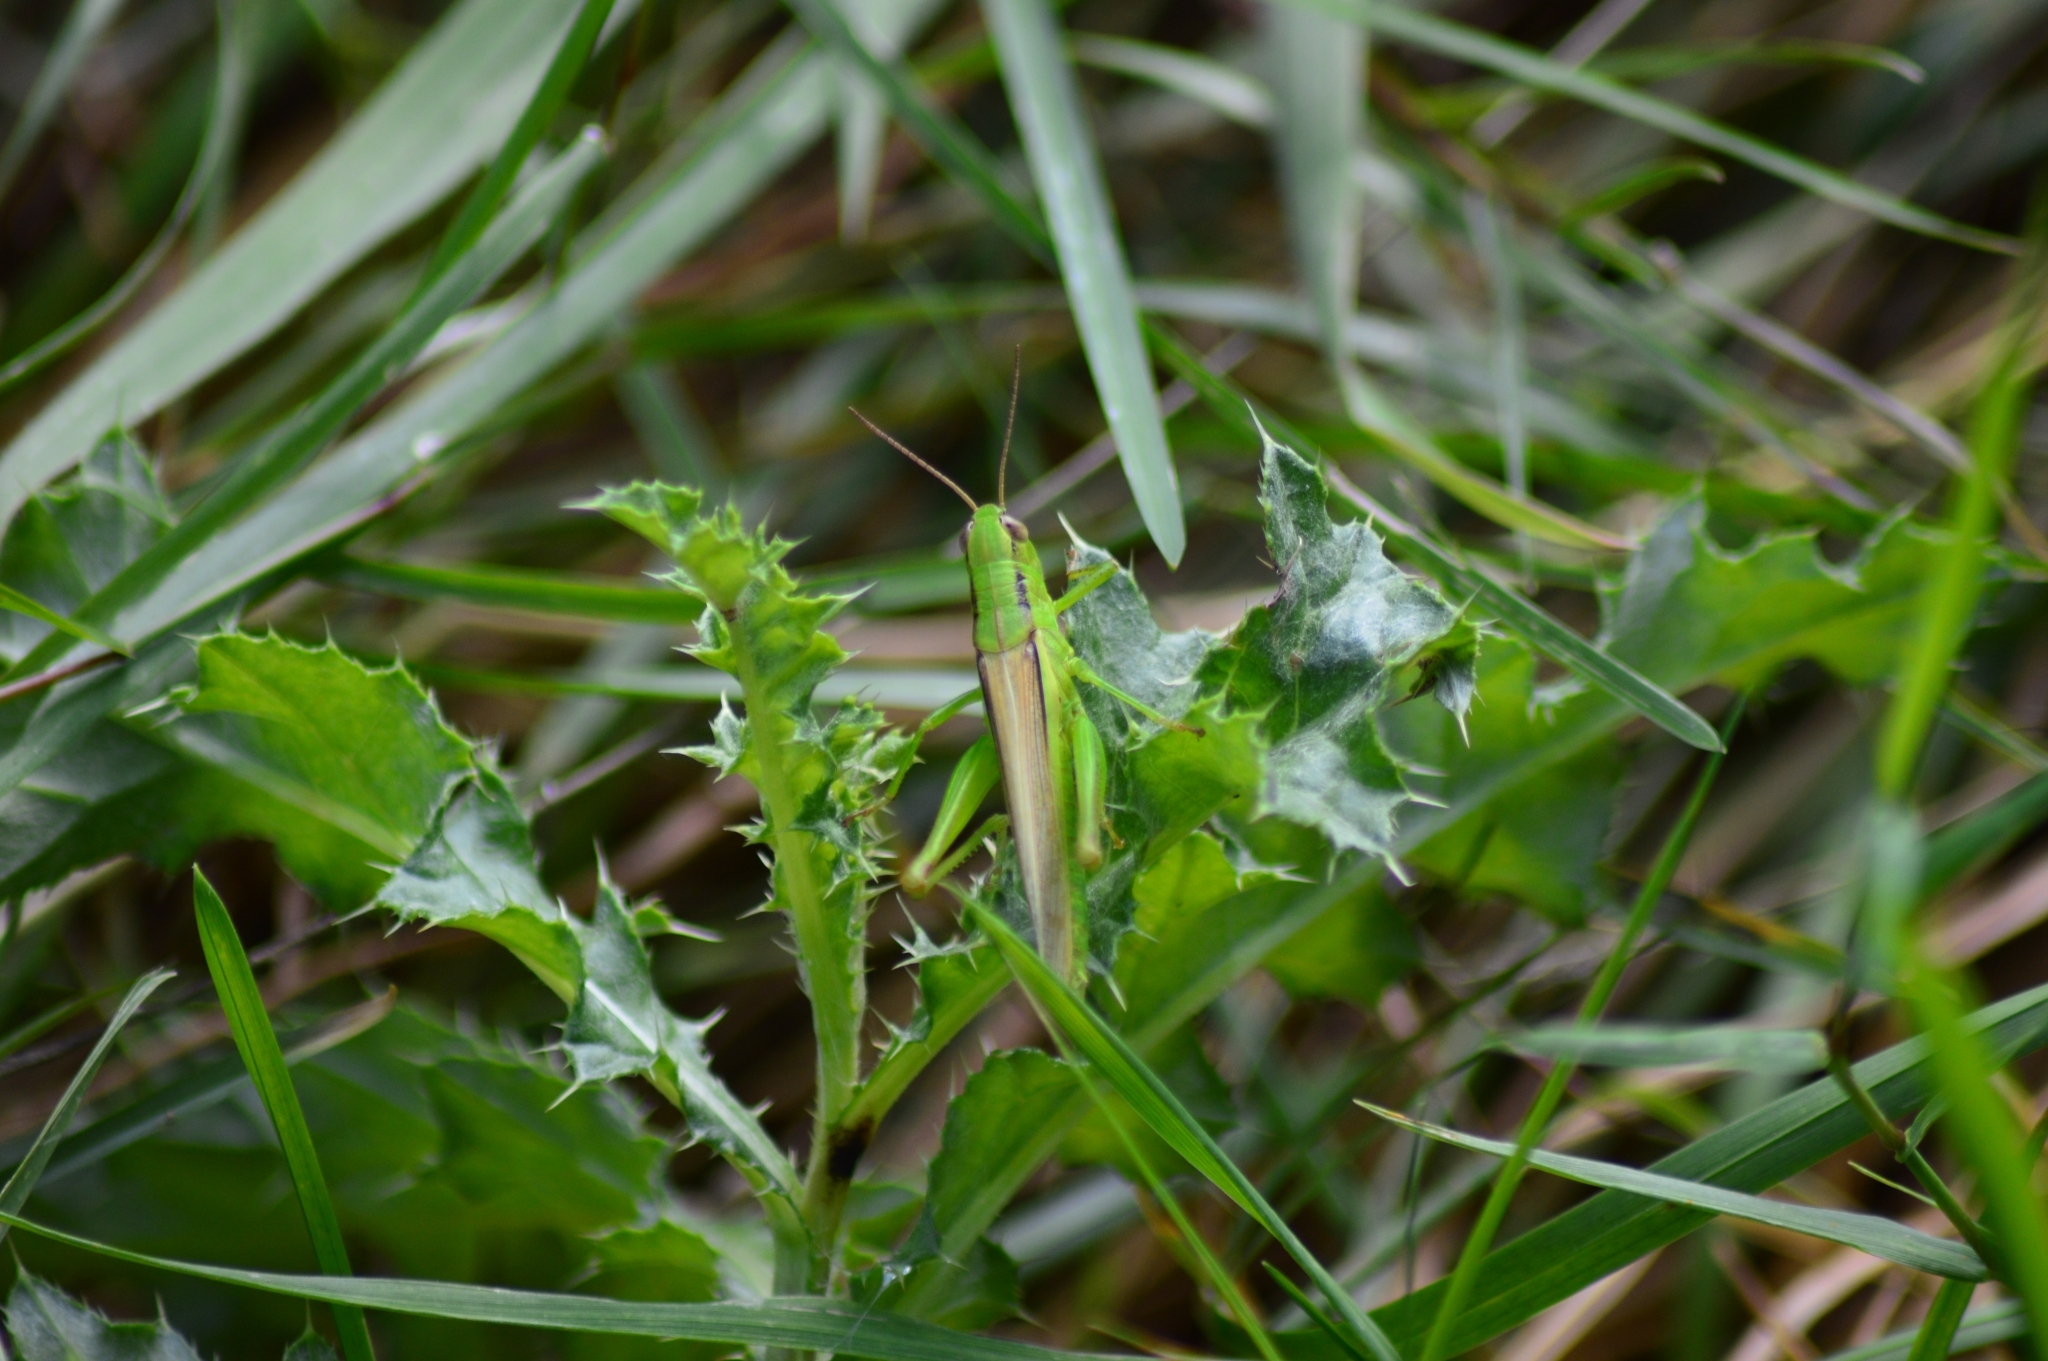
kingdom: Animalia
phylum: Arthropoda
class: Insecta
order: Orthoptera
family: Acrididae
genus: Mecostethus
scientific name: Mecostethus parapleurus
